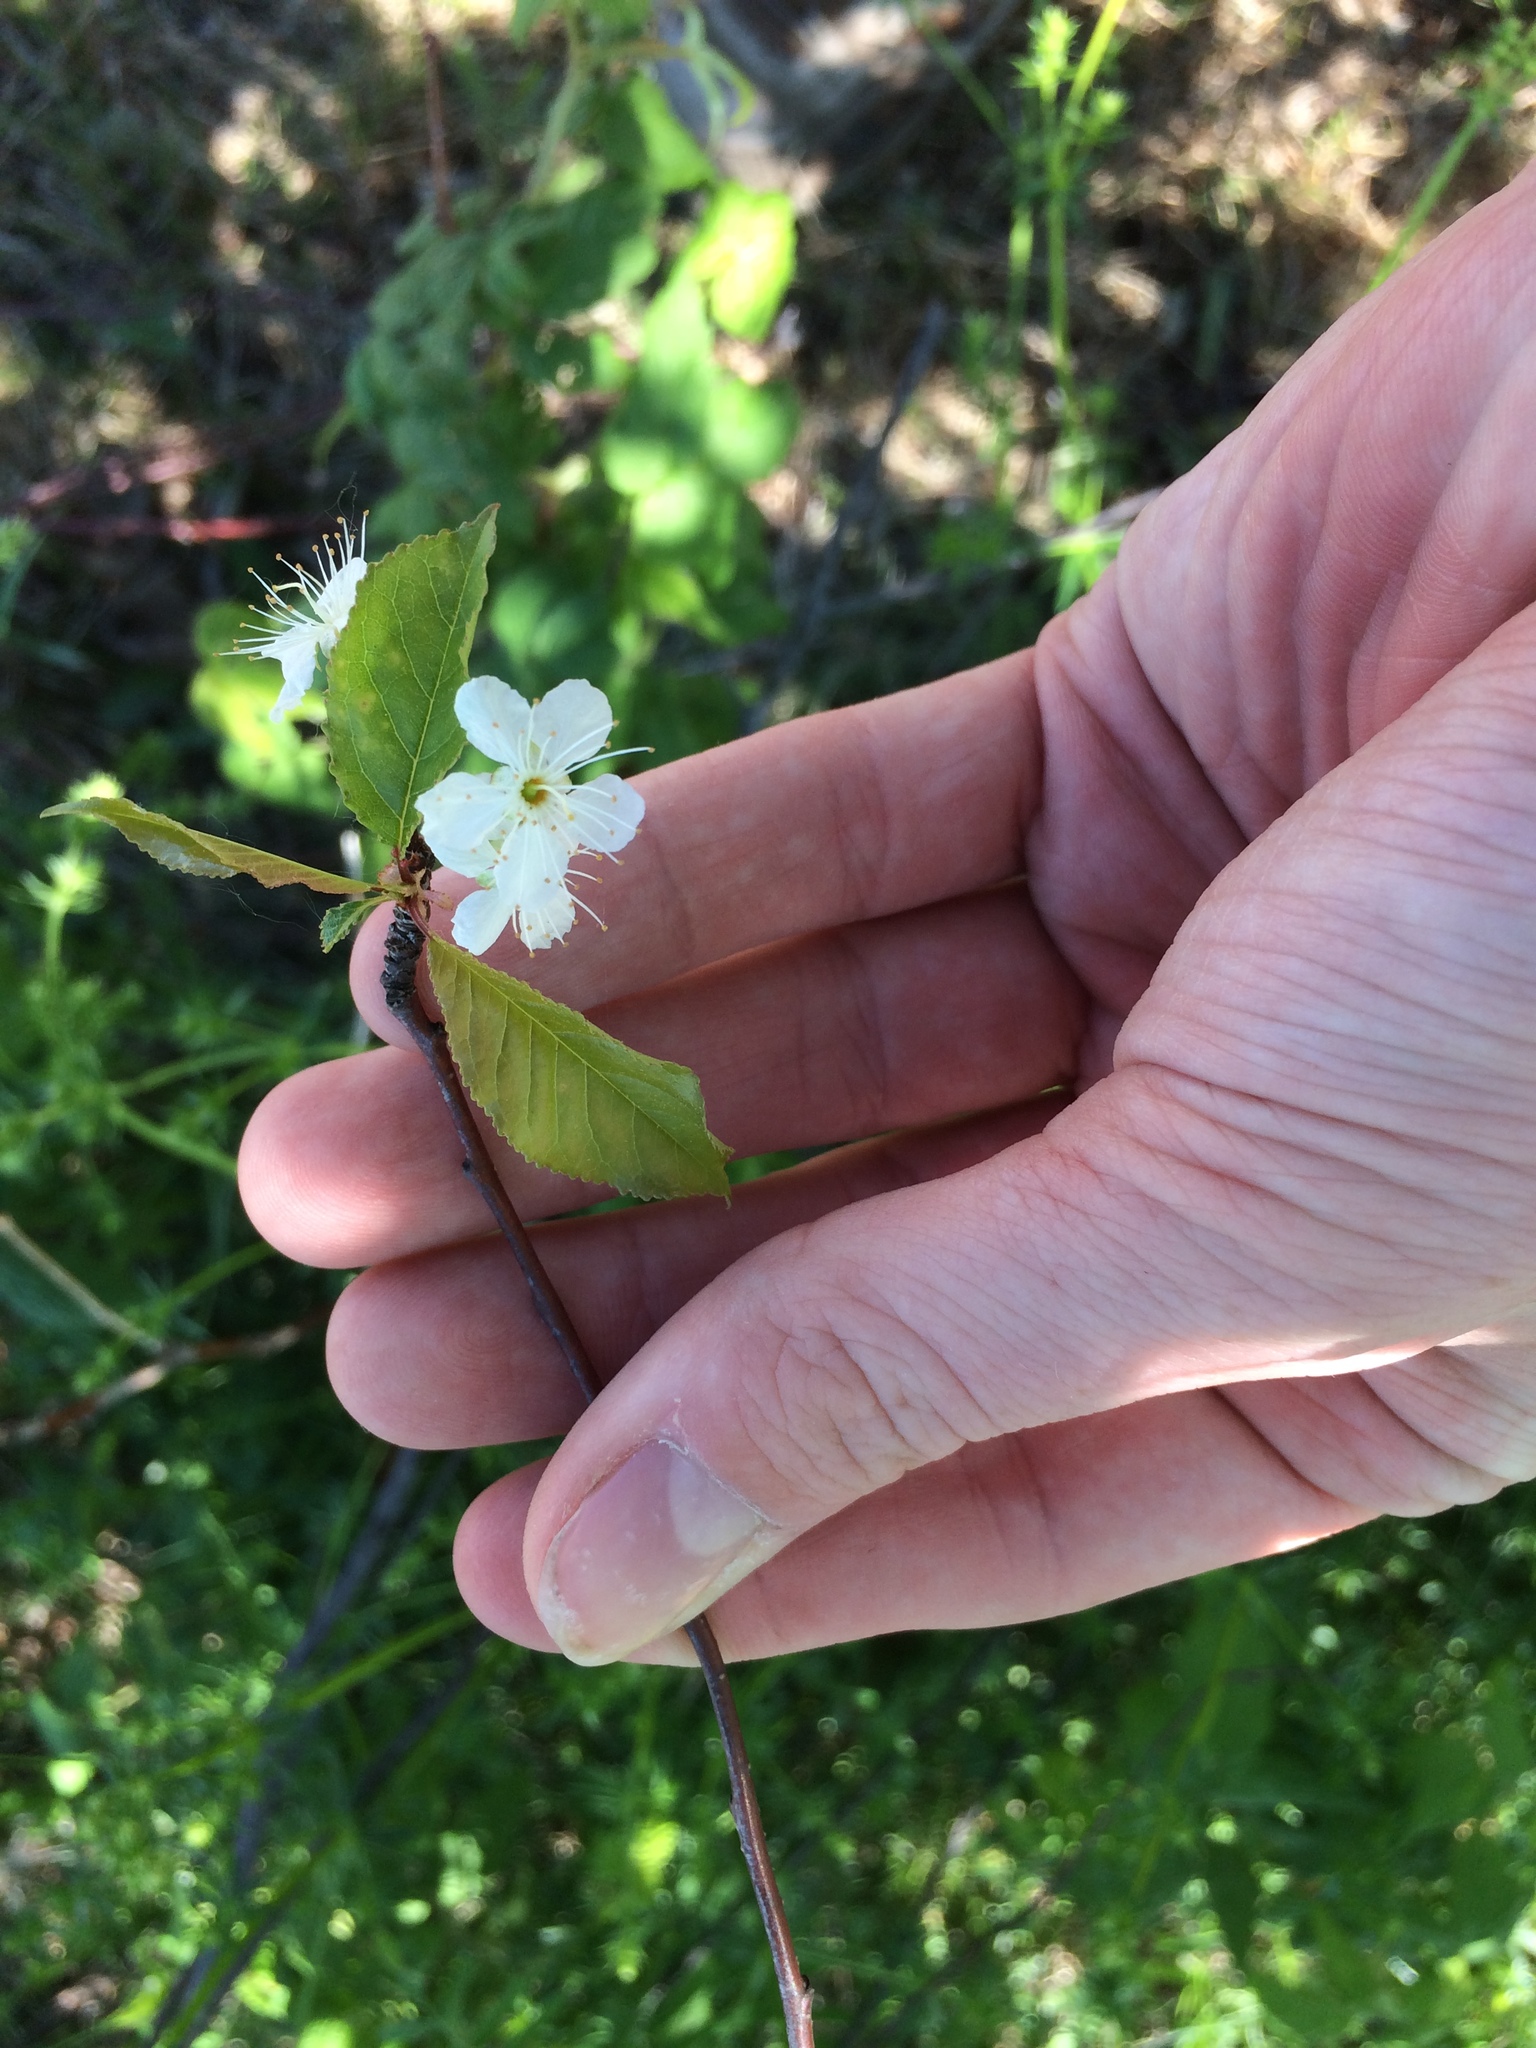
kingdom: Plantae
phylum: Tracheophyta
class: Magnoliopsida
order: Rosales
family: Rosaceae
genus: Prunus
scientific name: Prunus pensylvanica
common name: Pin cherry
